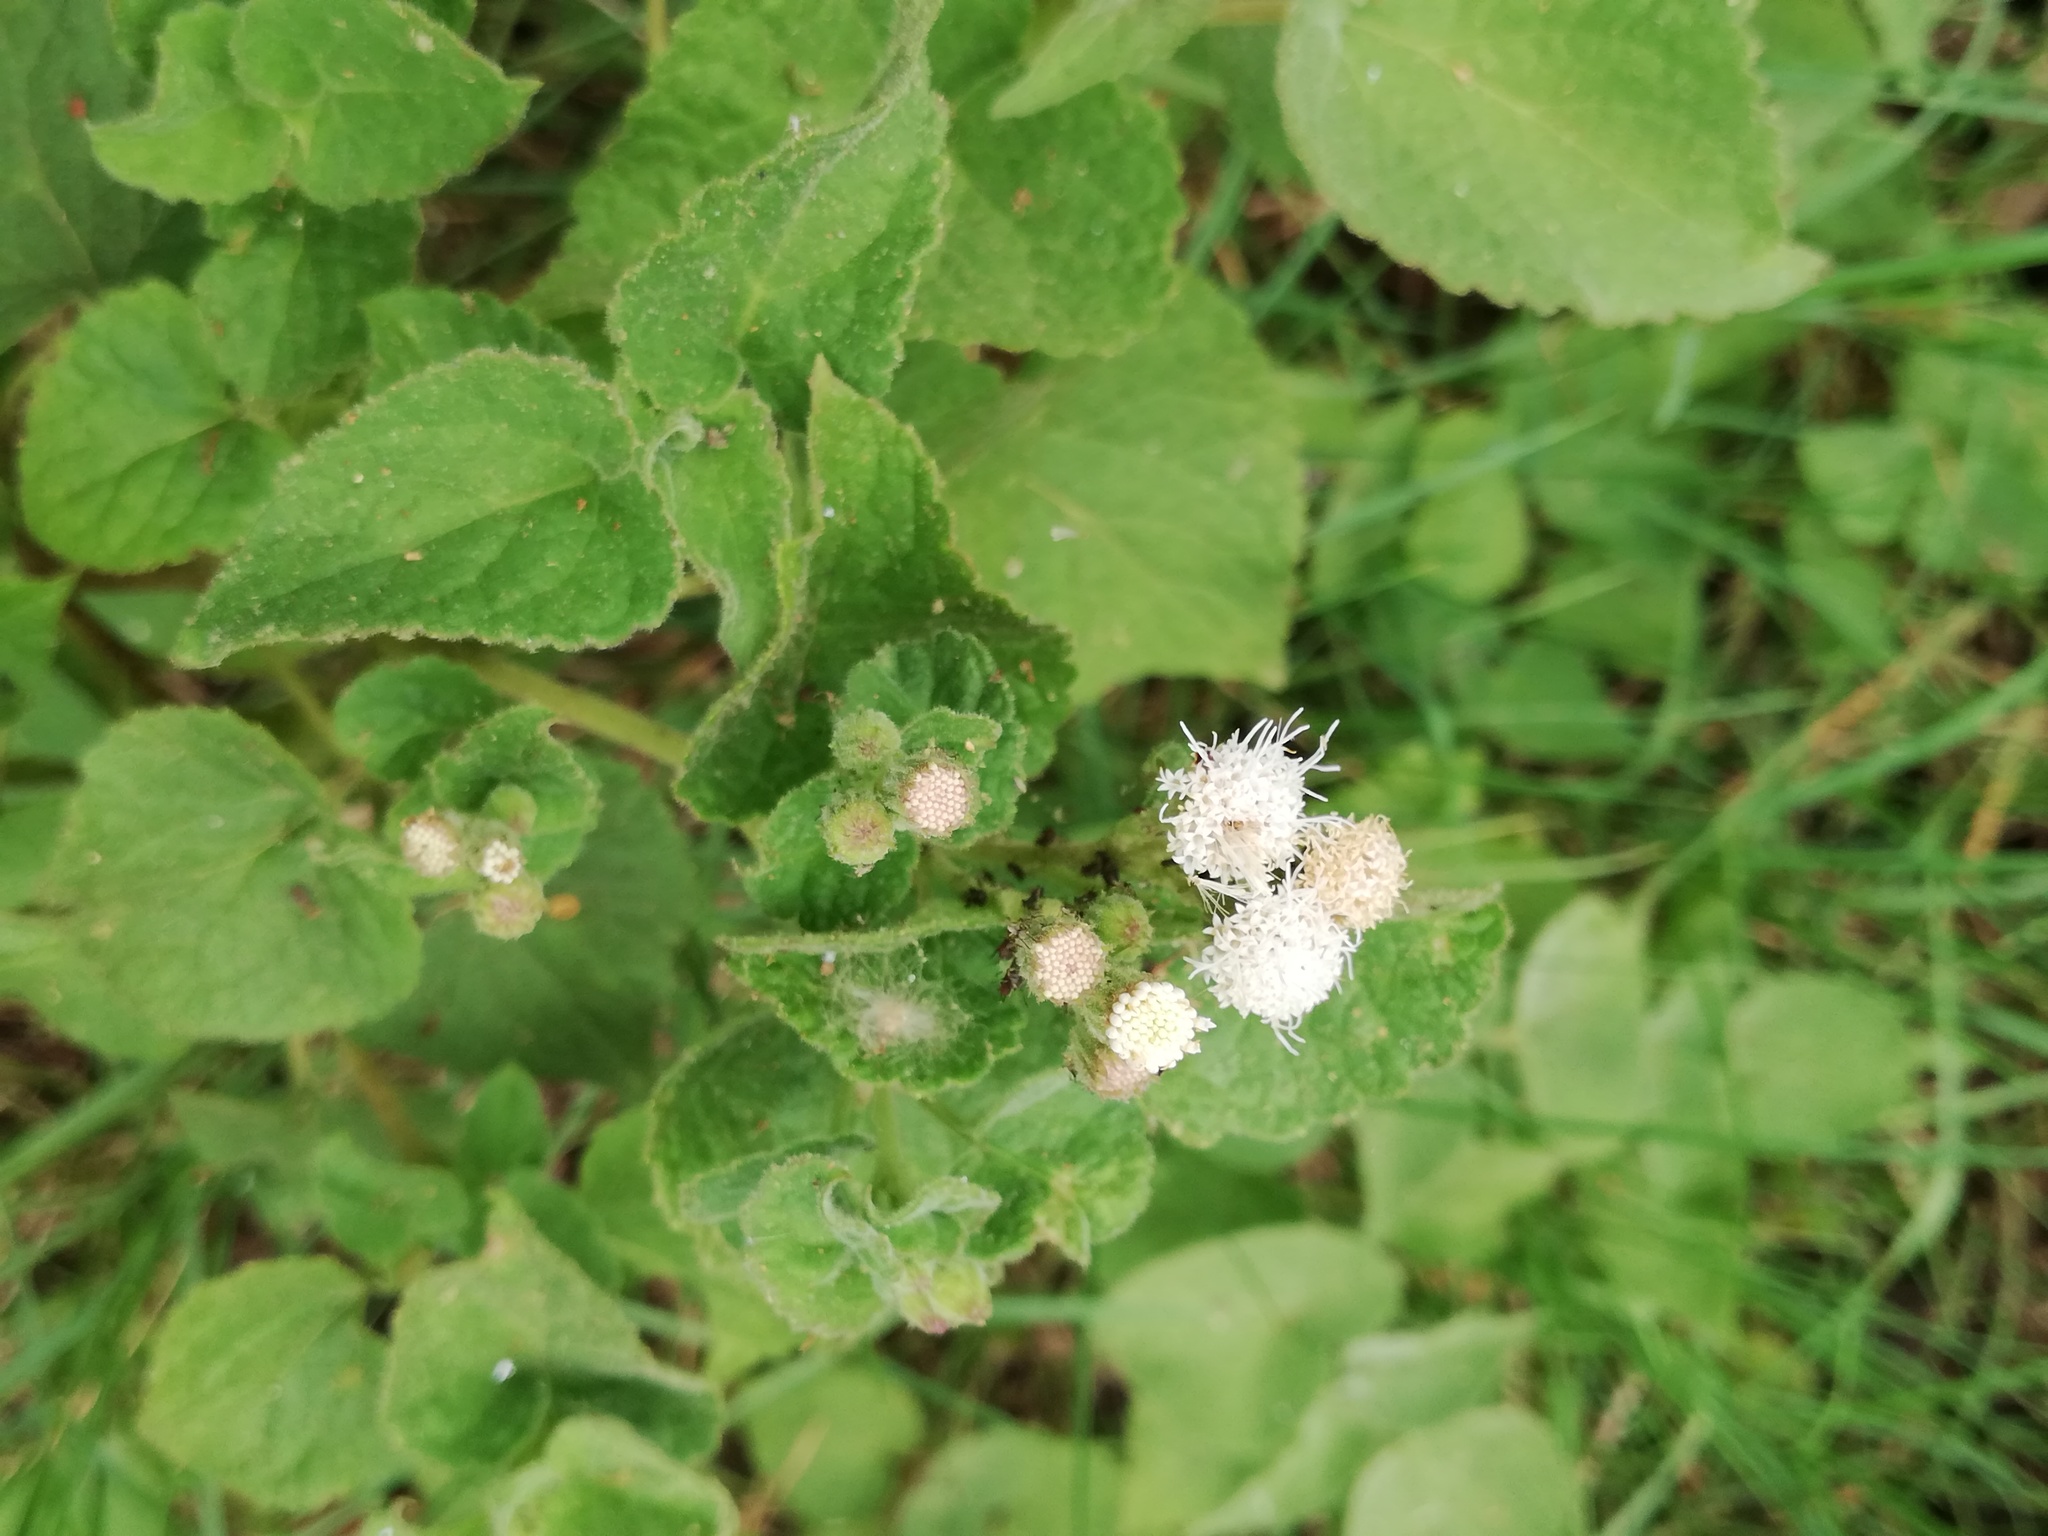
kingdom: Plantae
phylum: Tracheophyta
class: Magnoliopsida
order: Asterales
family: Asteraceae
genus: Ageratina
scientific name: Ageratina petiolaris
